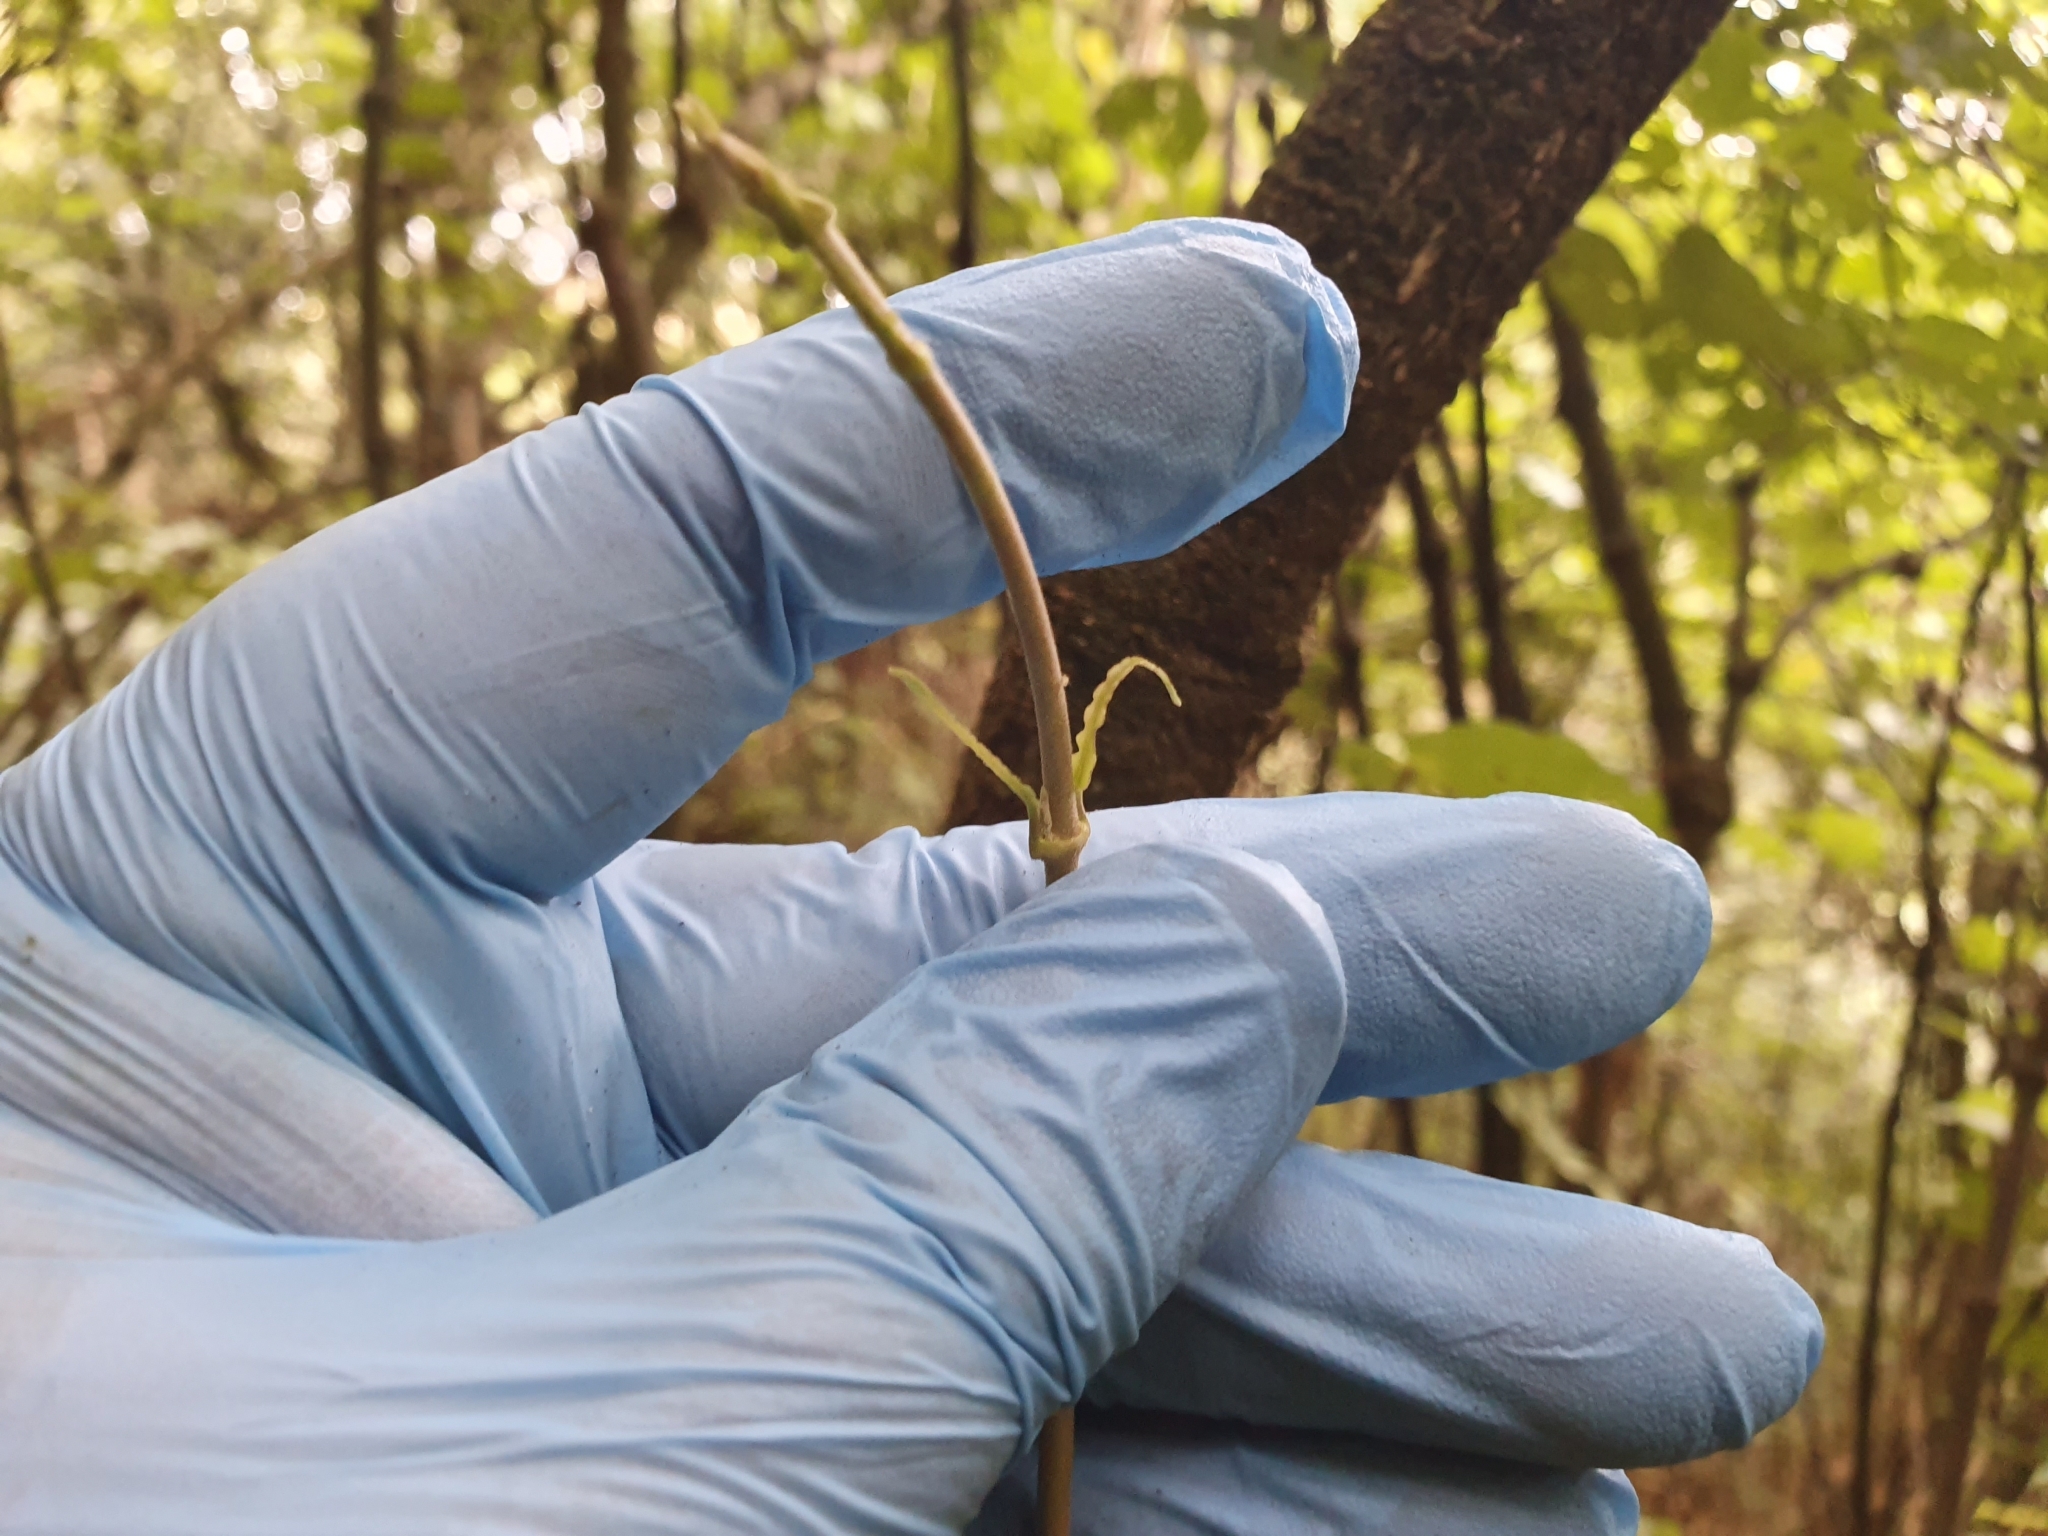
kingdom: Plantae
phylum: Tracheophyta
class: Magnoliopsida
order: Gentianales
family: Apocynaceae
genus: Parsonsia
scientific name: Parsonsia heterophylla
